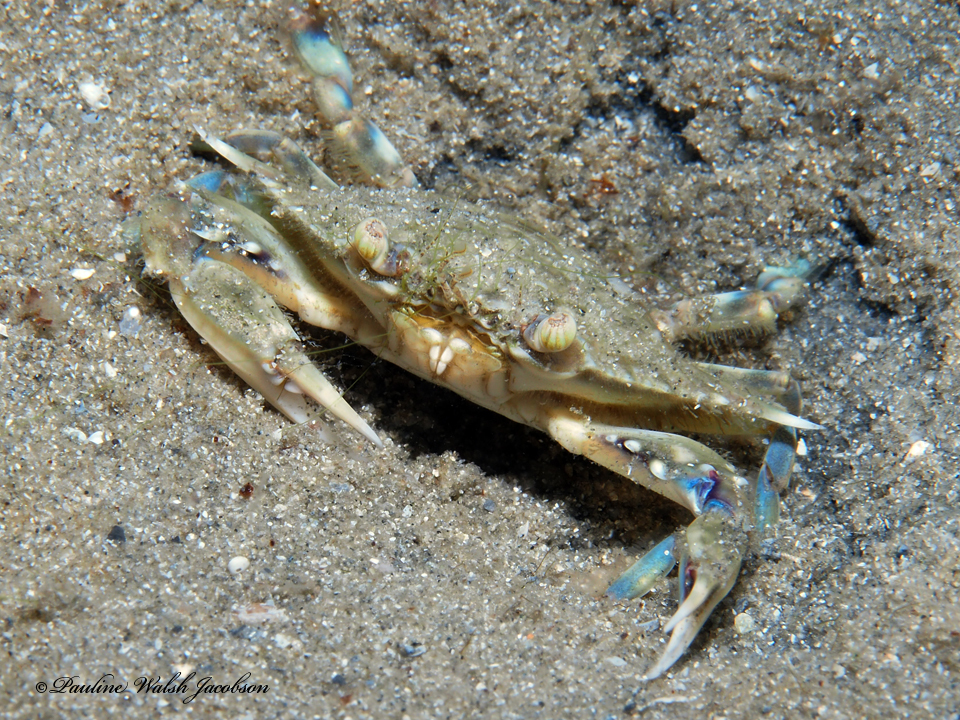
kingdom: Animalia
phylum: Arthropoda
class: Malacostraca
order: Decapoda
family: Portunidae
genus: Callinectes
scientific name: Callinectes ornatus
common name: Ornate crab
